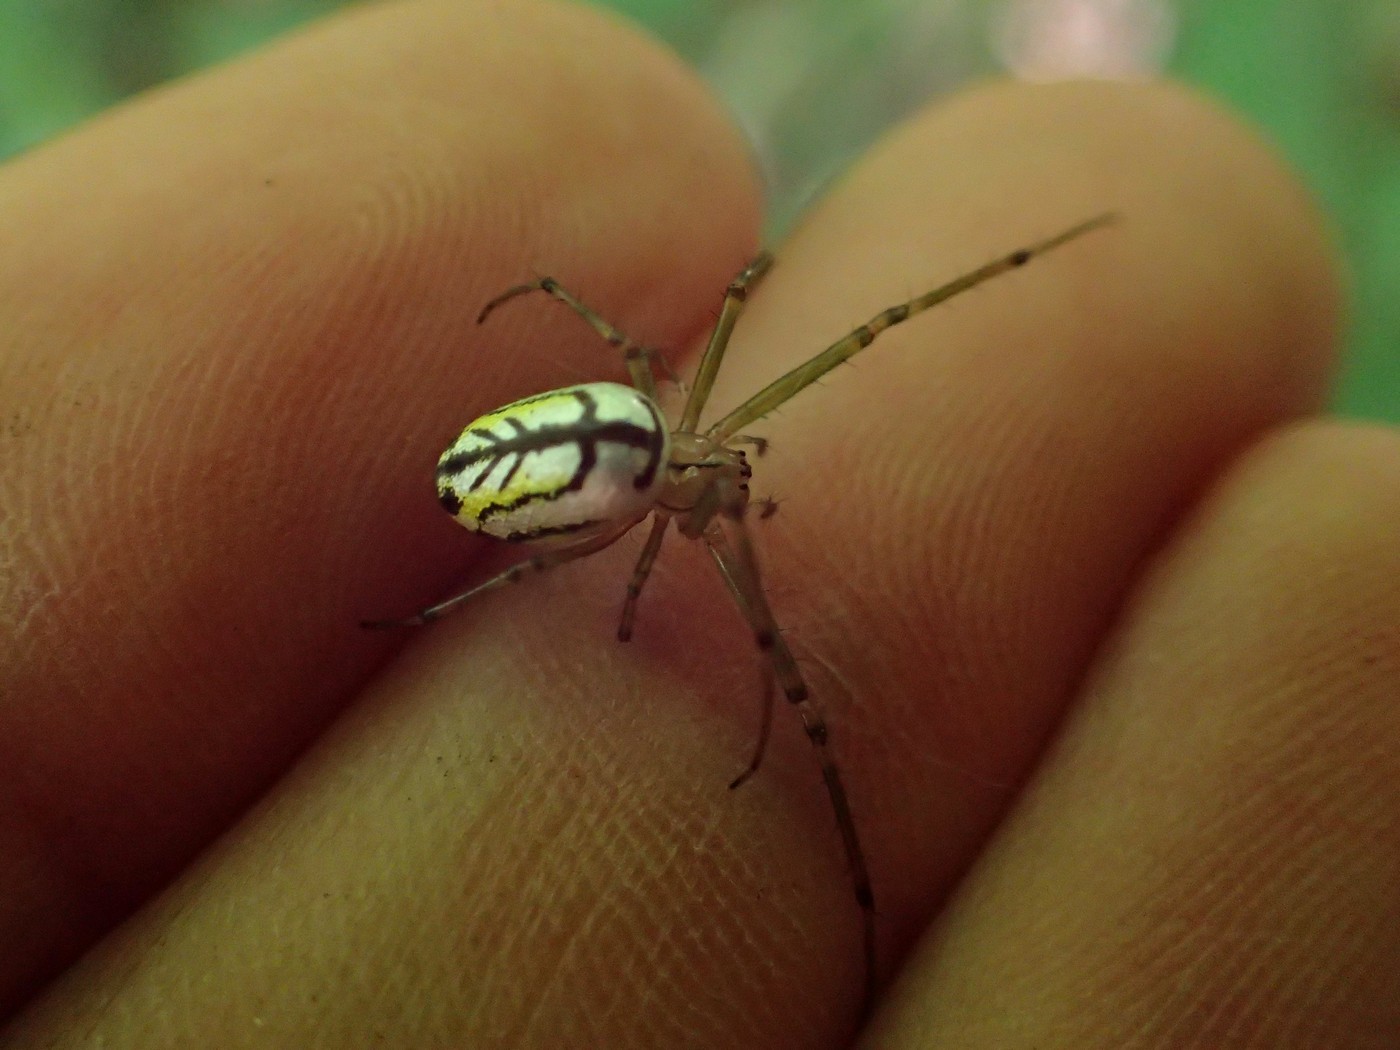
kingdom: Animalia
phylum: Arthropoda
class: Arachnida
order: Araneae
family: Tetragnathidae
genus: Leucauge
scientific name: Leucauge venusta
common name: Longjawed orb weavers
